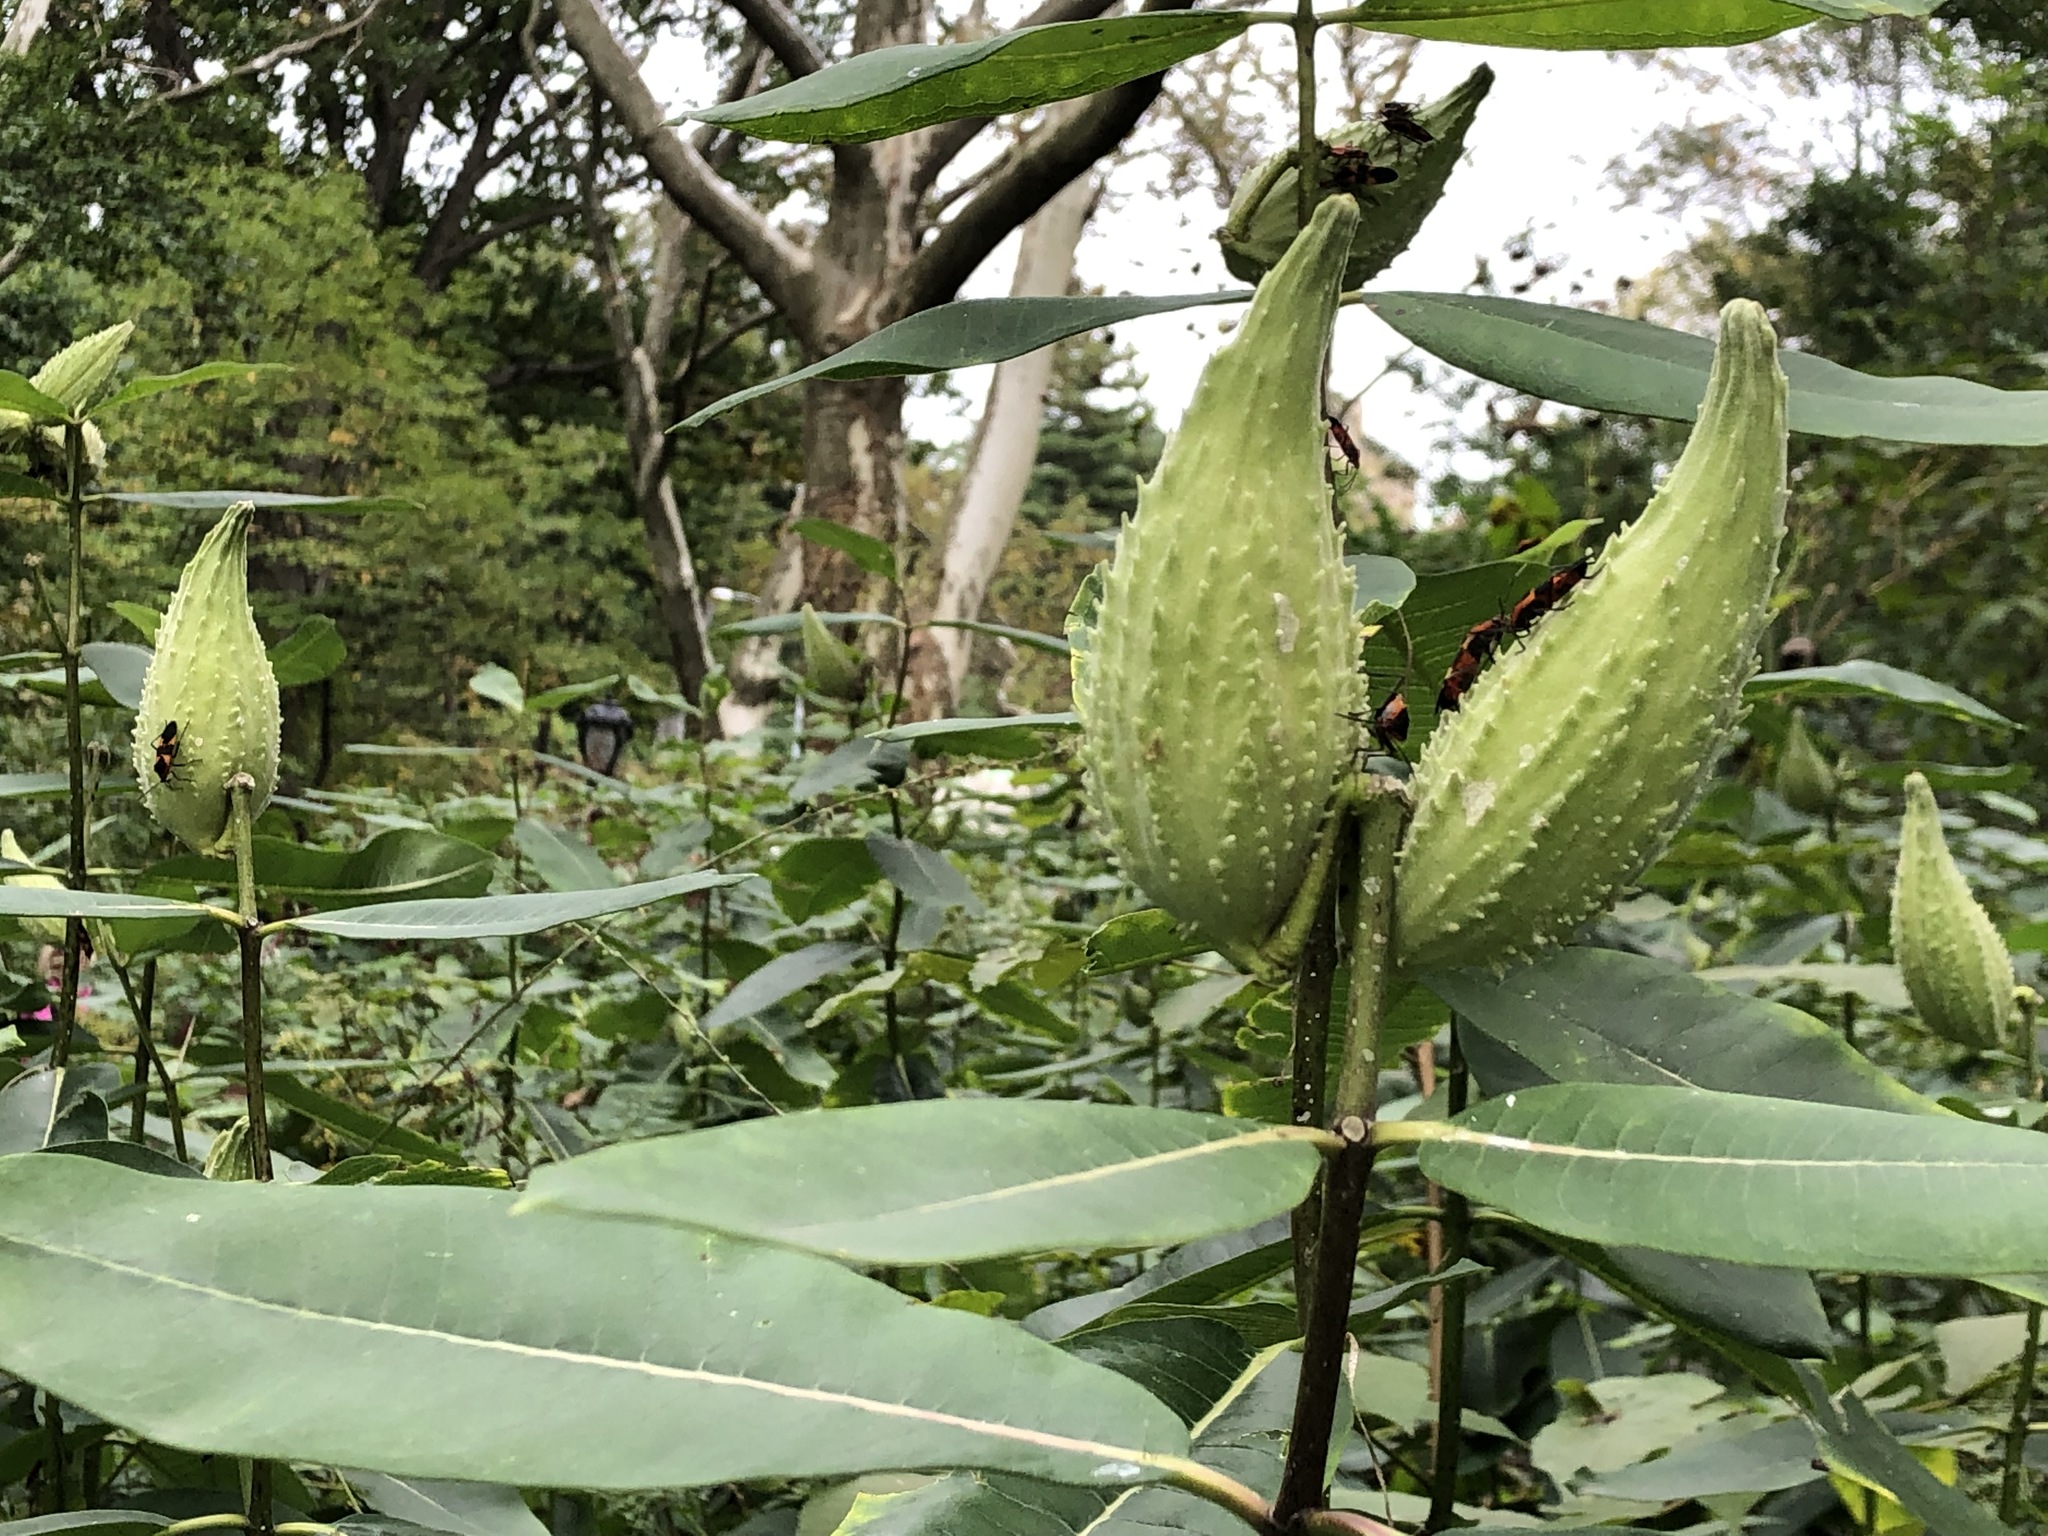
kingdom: Plantae
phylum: Tracheophyta
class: Magnoliopsida
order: Gentianales
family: Apocynaceae
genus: Asclepias
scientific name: Asclepias syriaca
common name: Common milkweed
